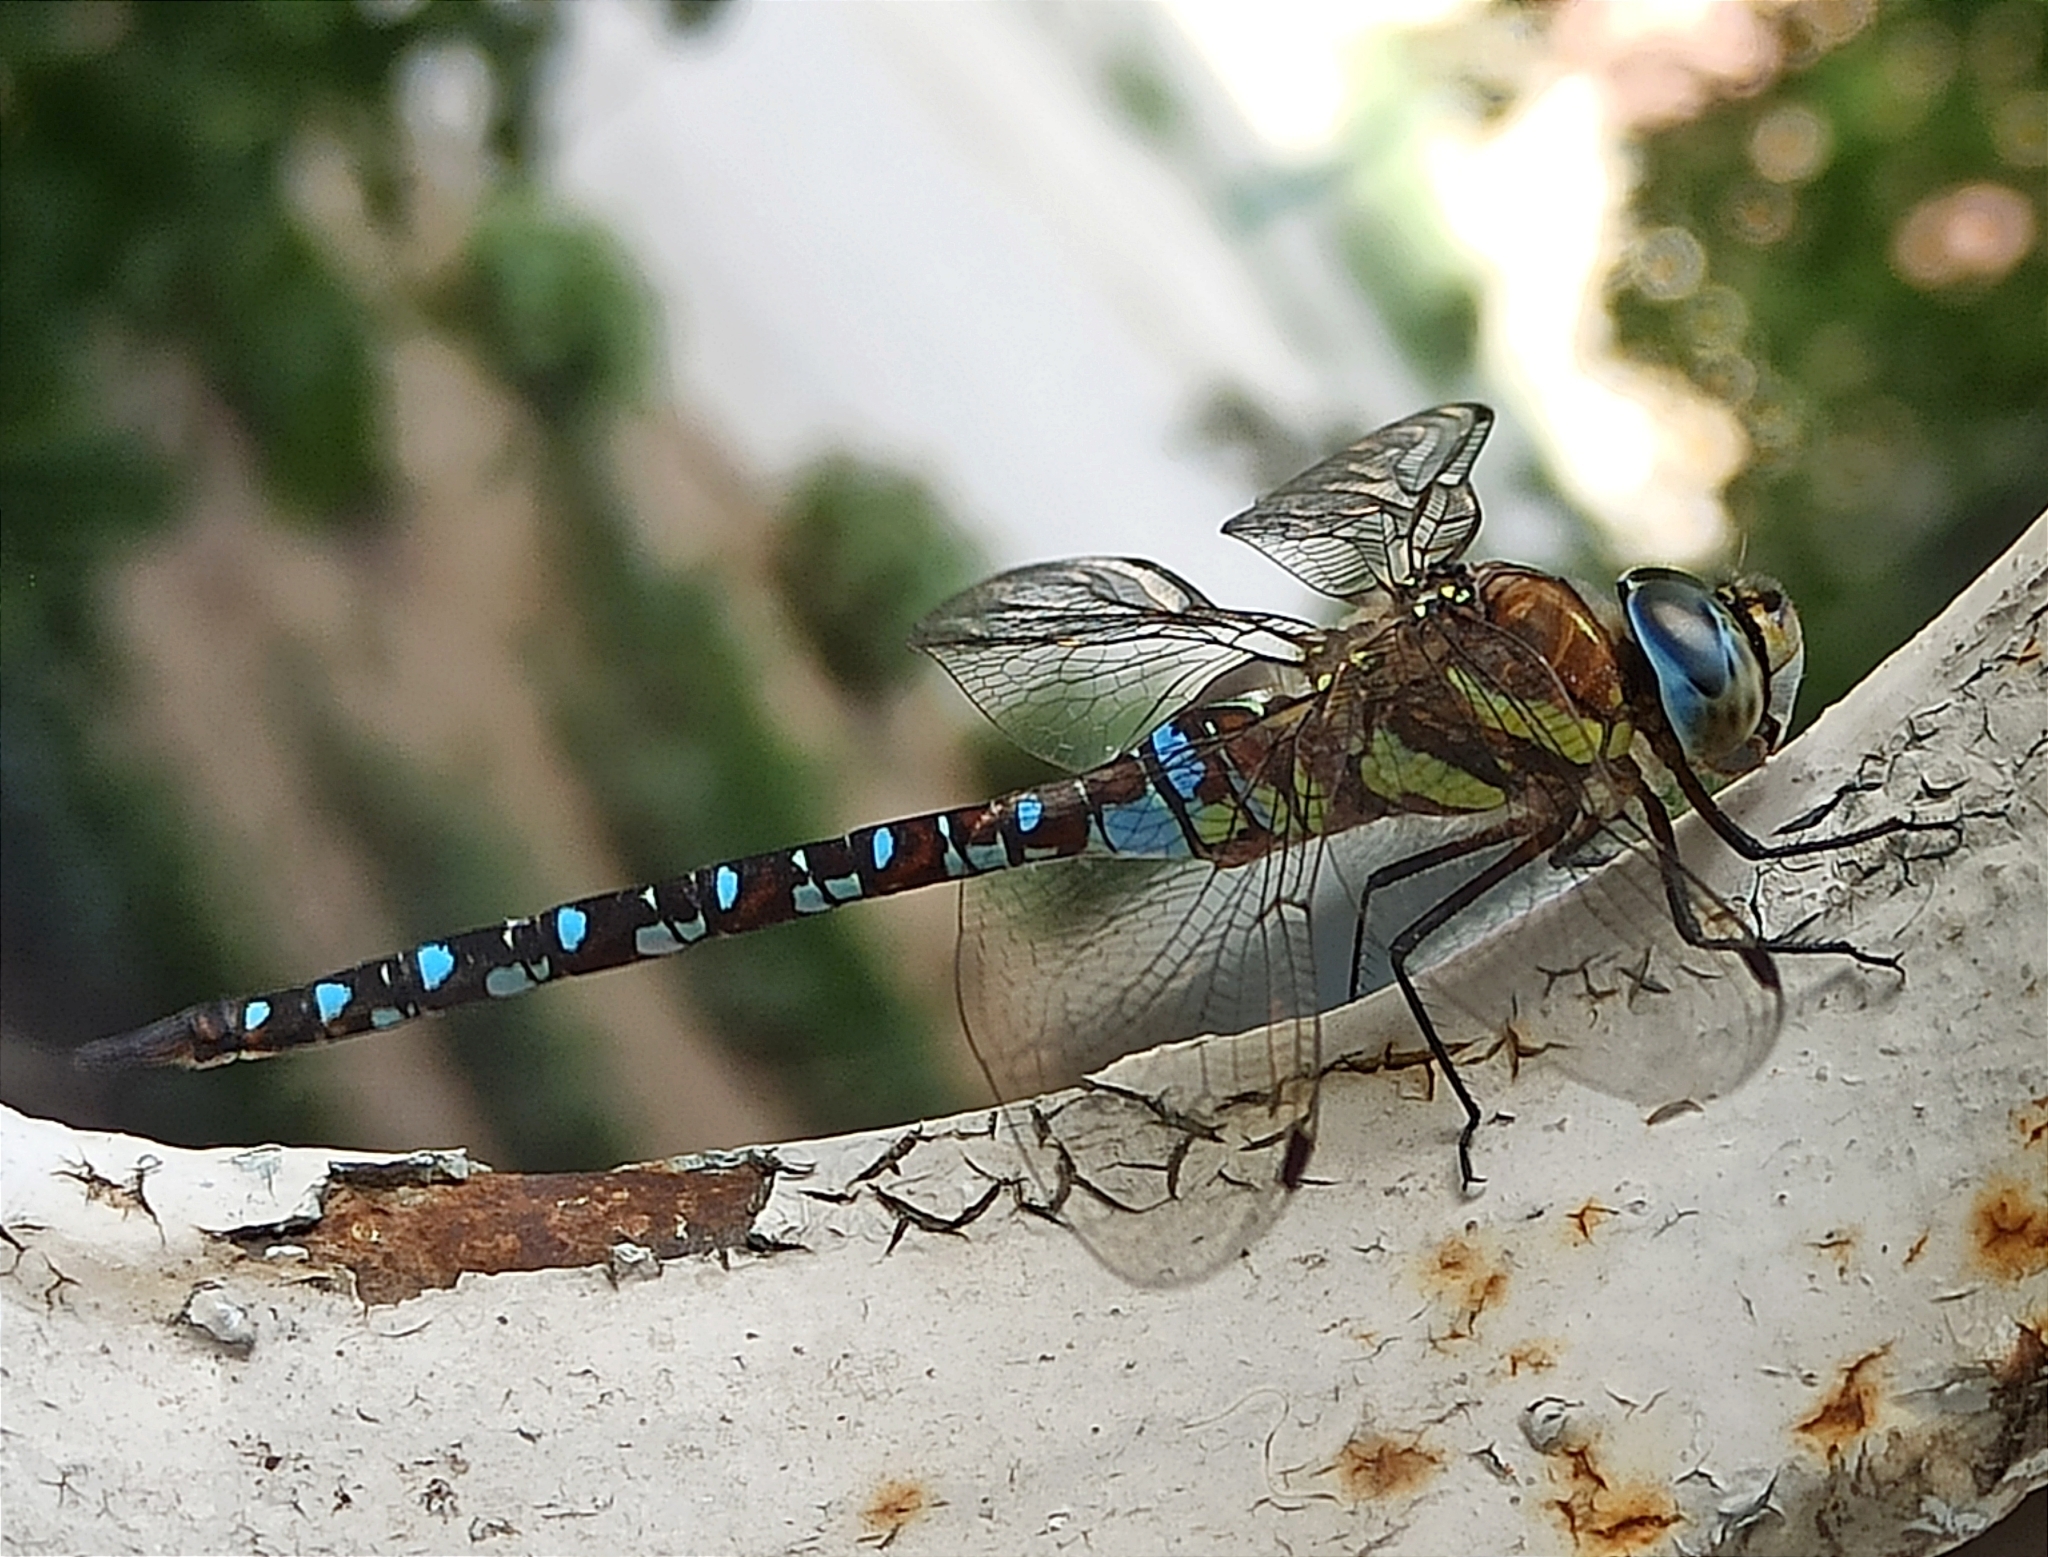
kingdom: Animalia
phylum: Arthropoda
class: Insecta
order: Odonata
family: Aeshnidae
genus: Aeshna
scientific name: Aeshna mixta
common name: Migrant hawker
